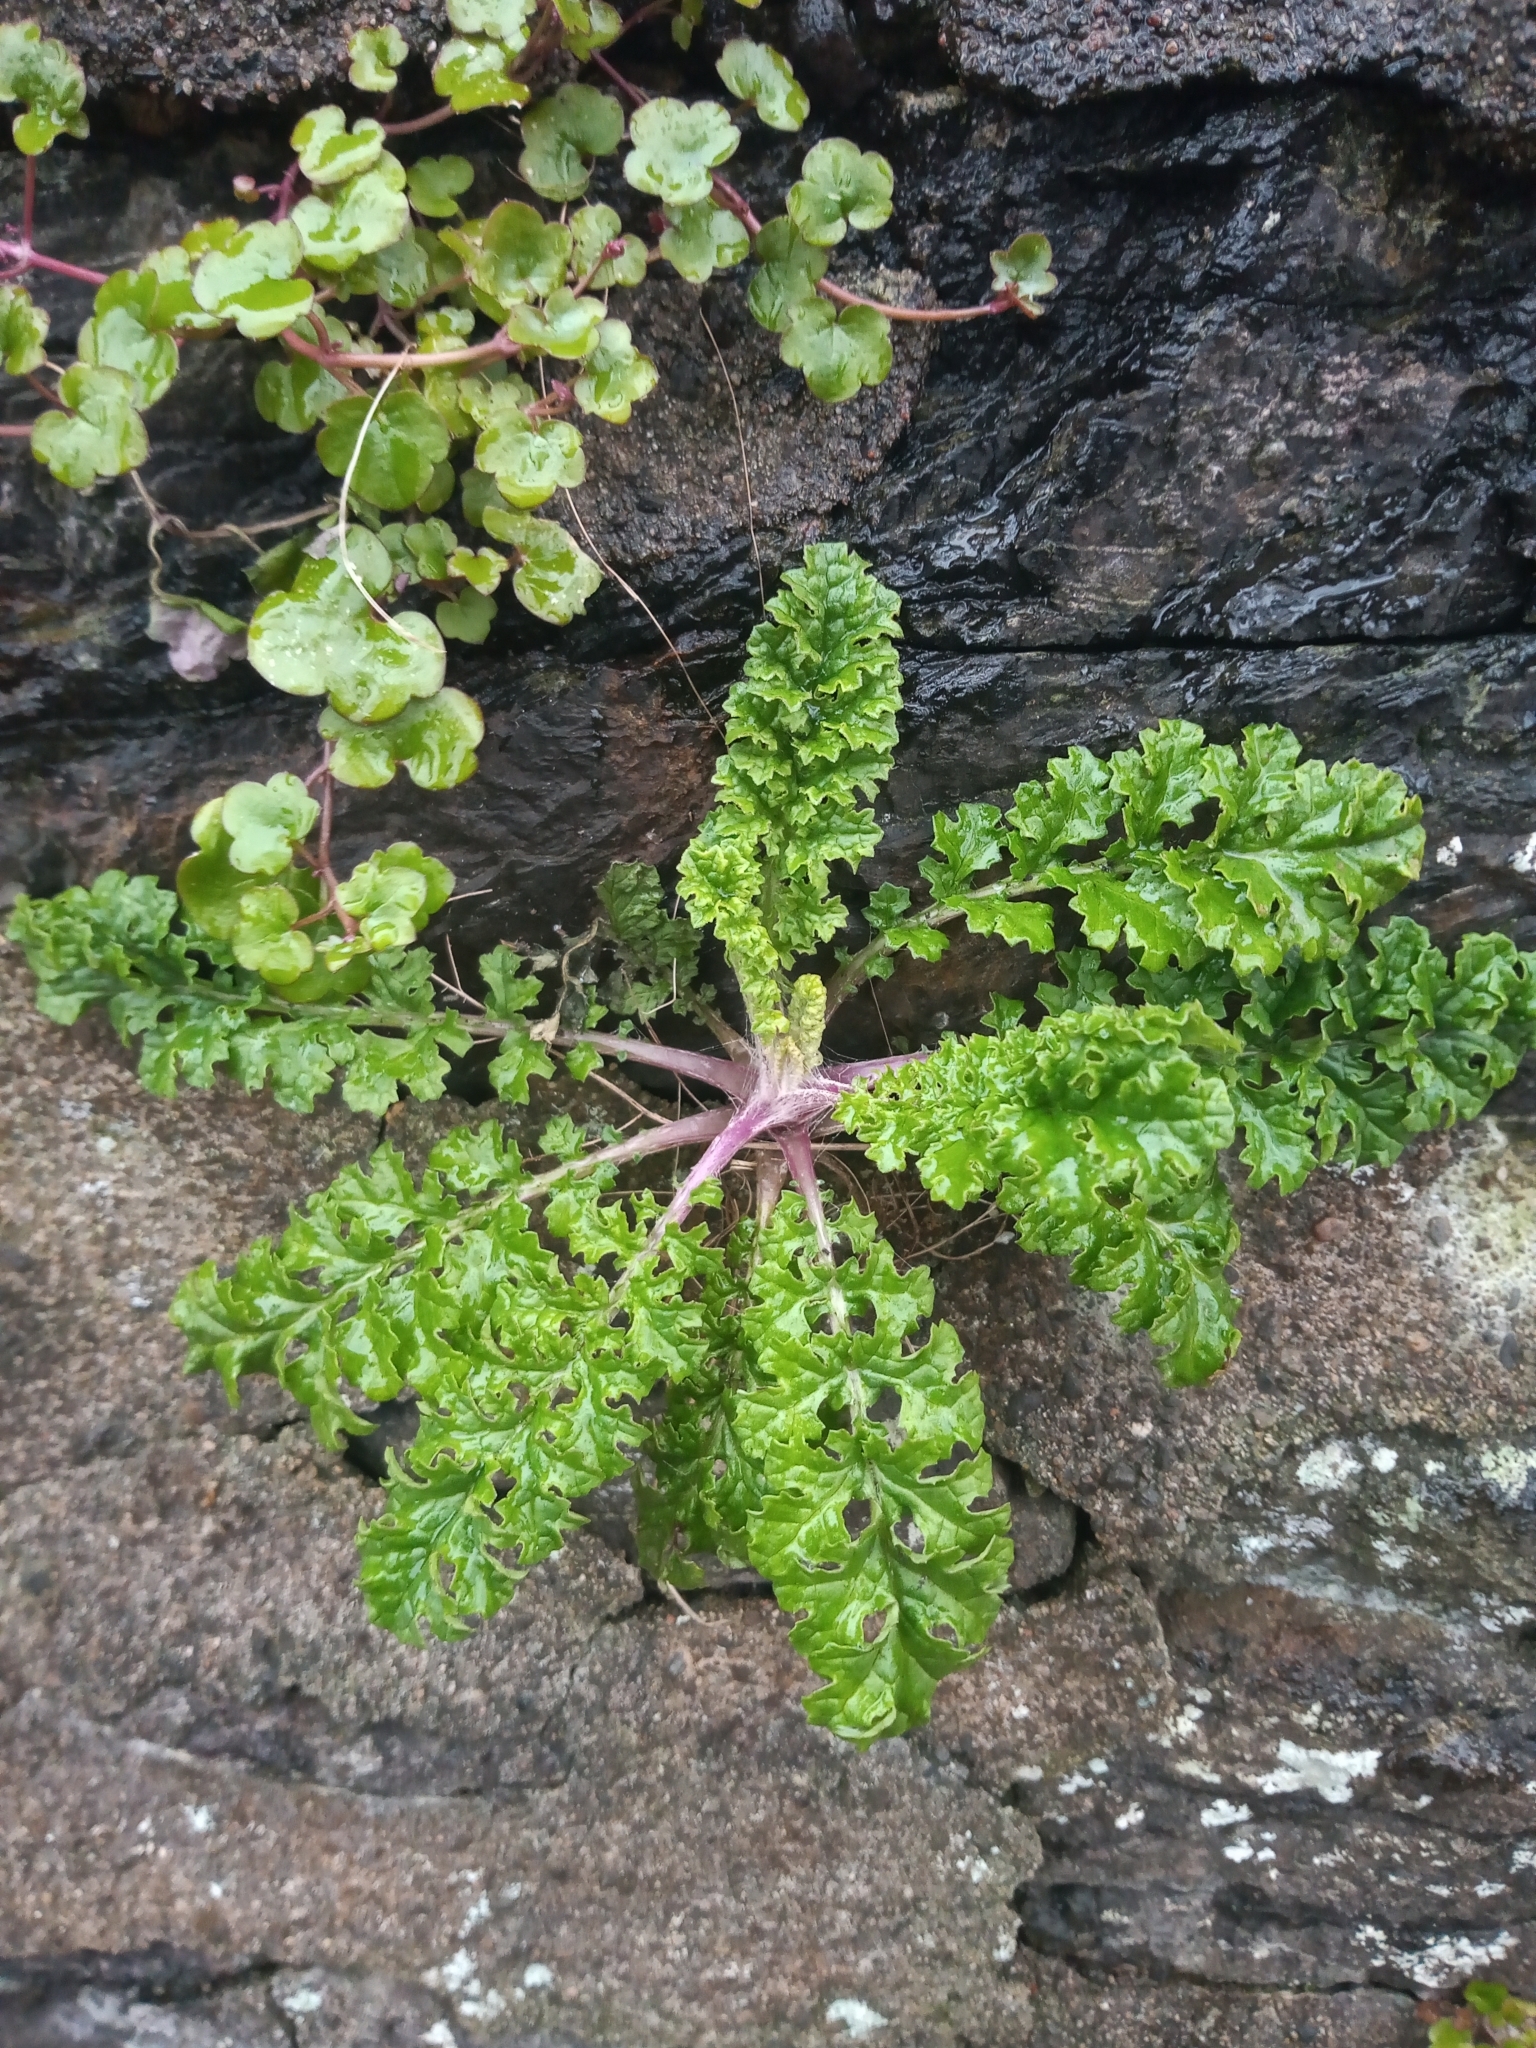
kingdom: Plantae
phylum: Tracheophyta
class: Magnoliopsida
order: Asterales
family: Asteraceae
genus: Jacobaea
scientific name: Jacobaea vulgaris
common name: Stinking willie
